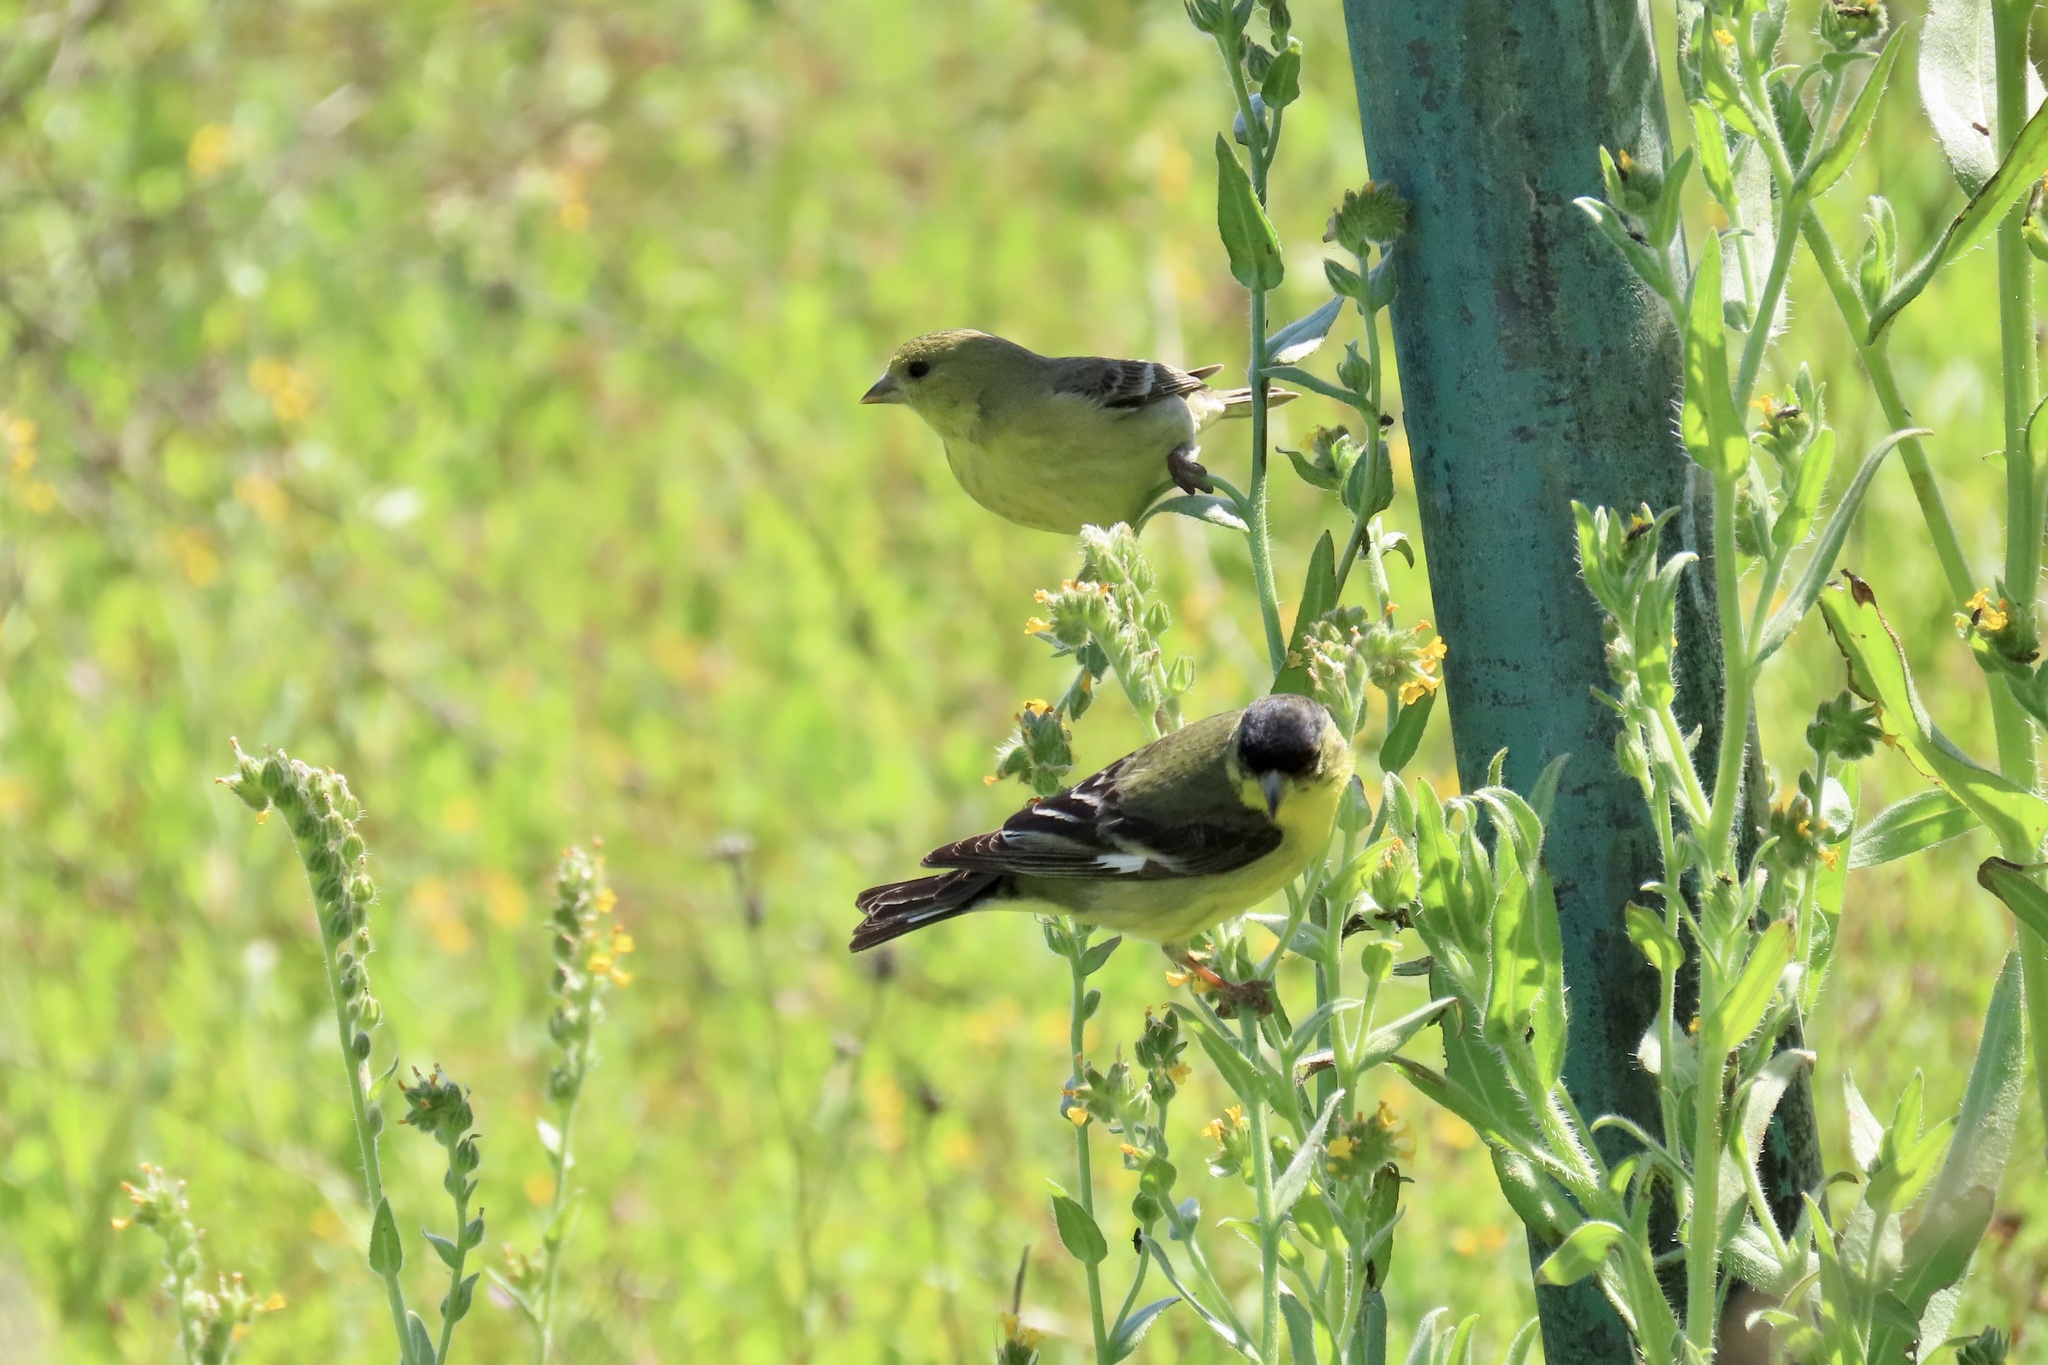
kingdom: Animalia
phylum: Chordata
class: Aves
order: Passeriformes
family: Fringillidae
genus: Spinus
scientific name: Spinus psaltria
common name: Lesser goldfinch
